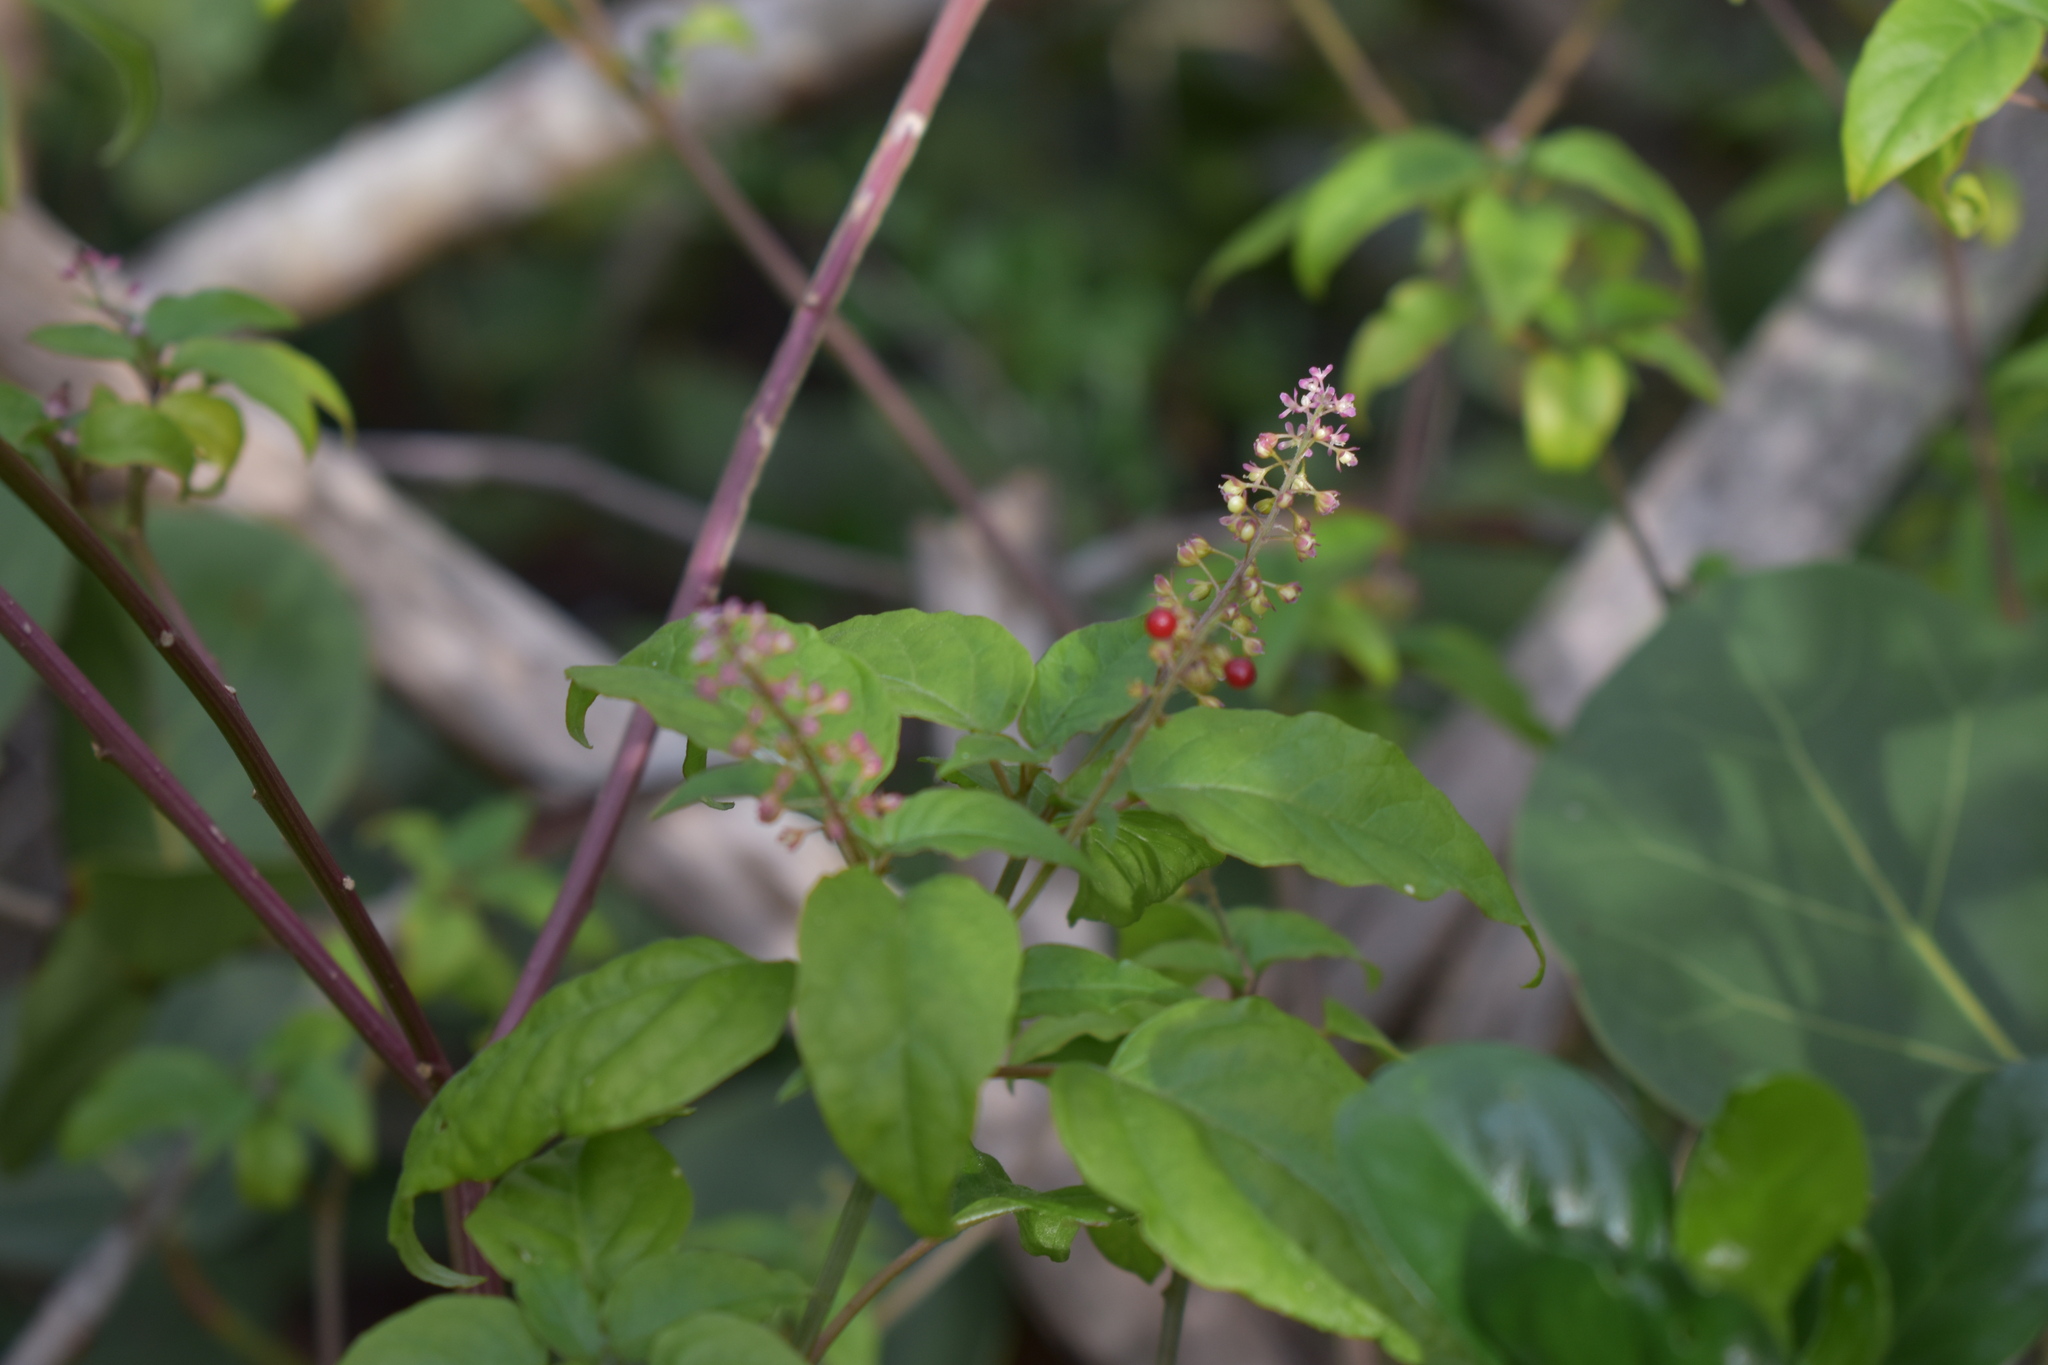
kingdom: Plantae
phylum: Tracheophyta
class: Magnoliopsida
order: Caryophyllales
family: Phytolaccaceae
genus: Rivina
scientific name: Rivina humilis
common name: Rougeplant
